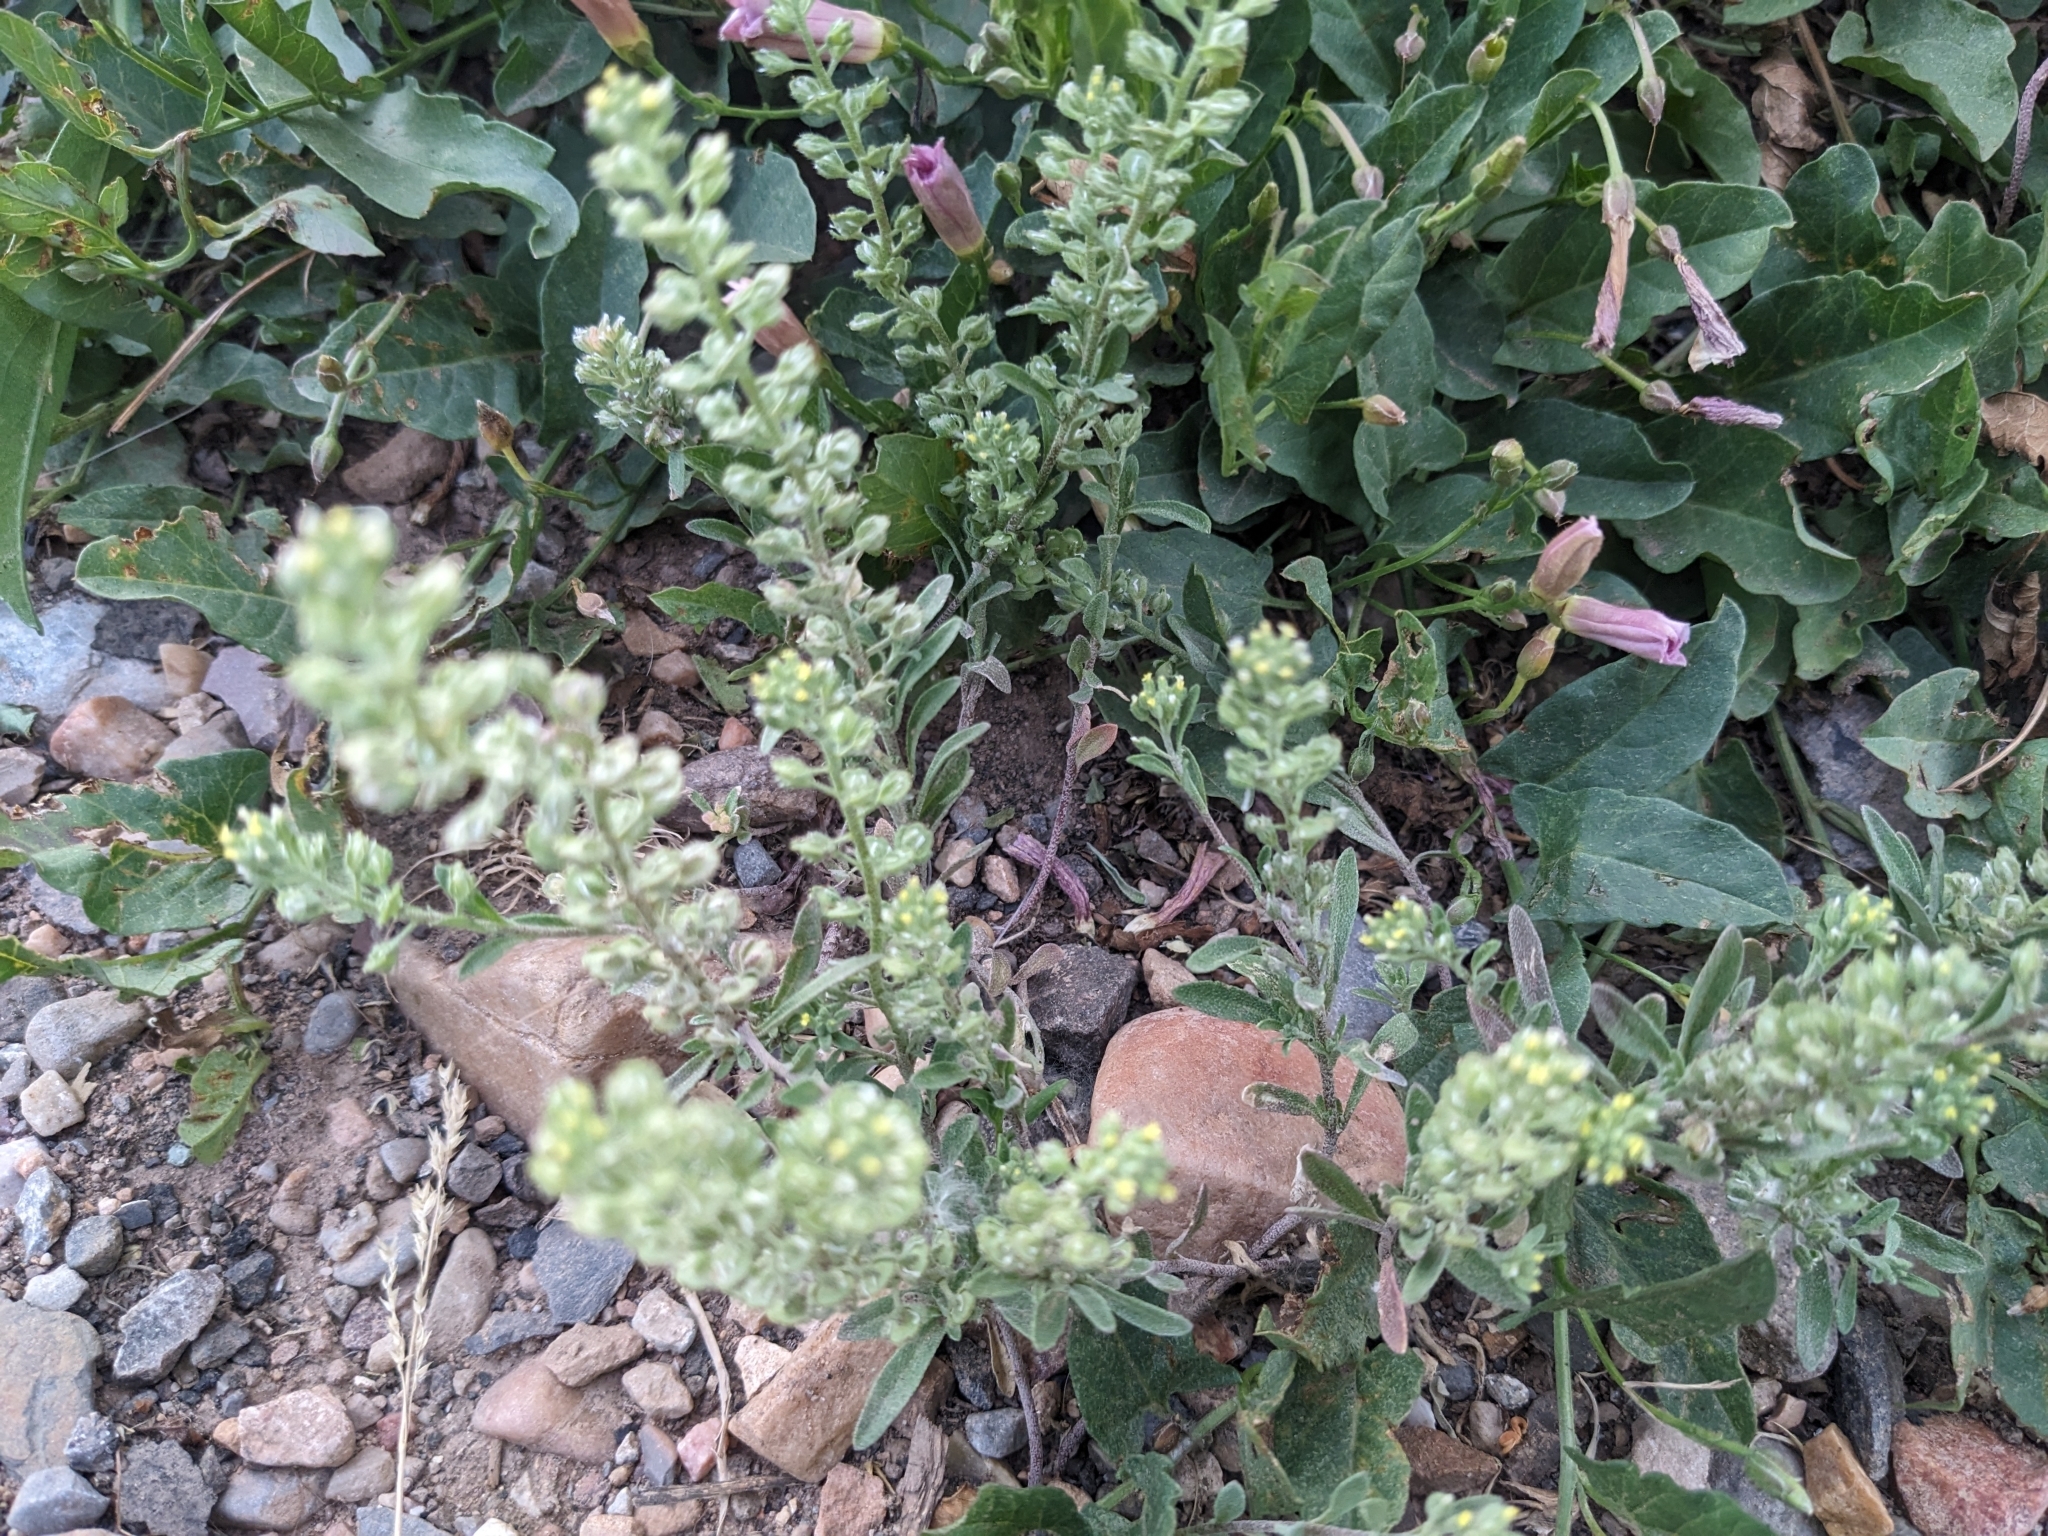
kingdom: Plantae
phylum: Tracheophyta
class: Magnoliopsida
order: Brassicales
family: Brassicaceae
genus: Alyssum
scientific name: Alyssum alyssoides
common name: Small alison
